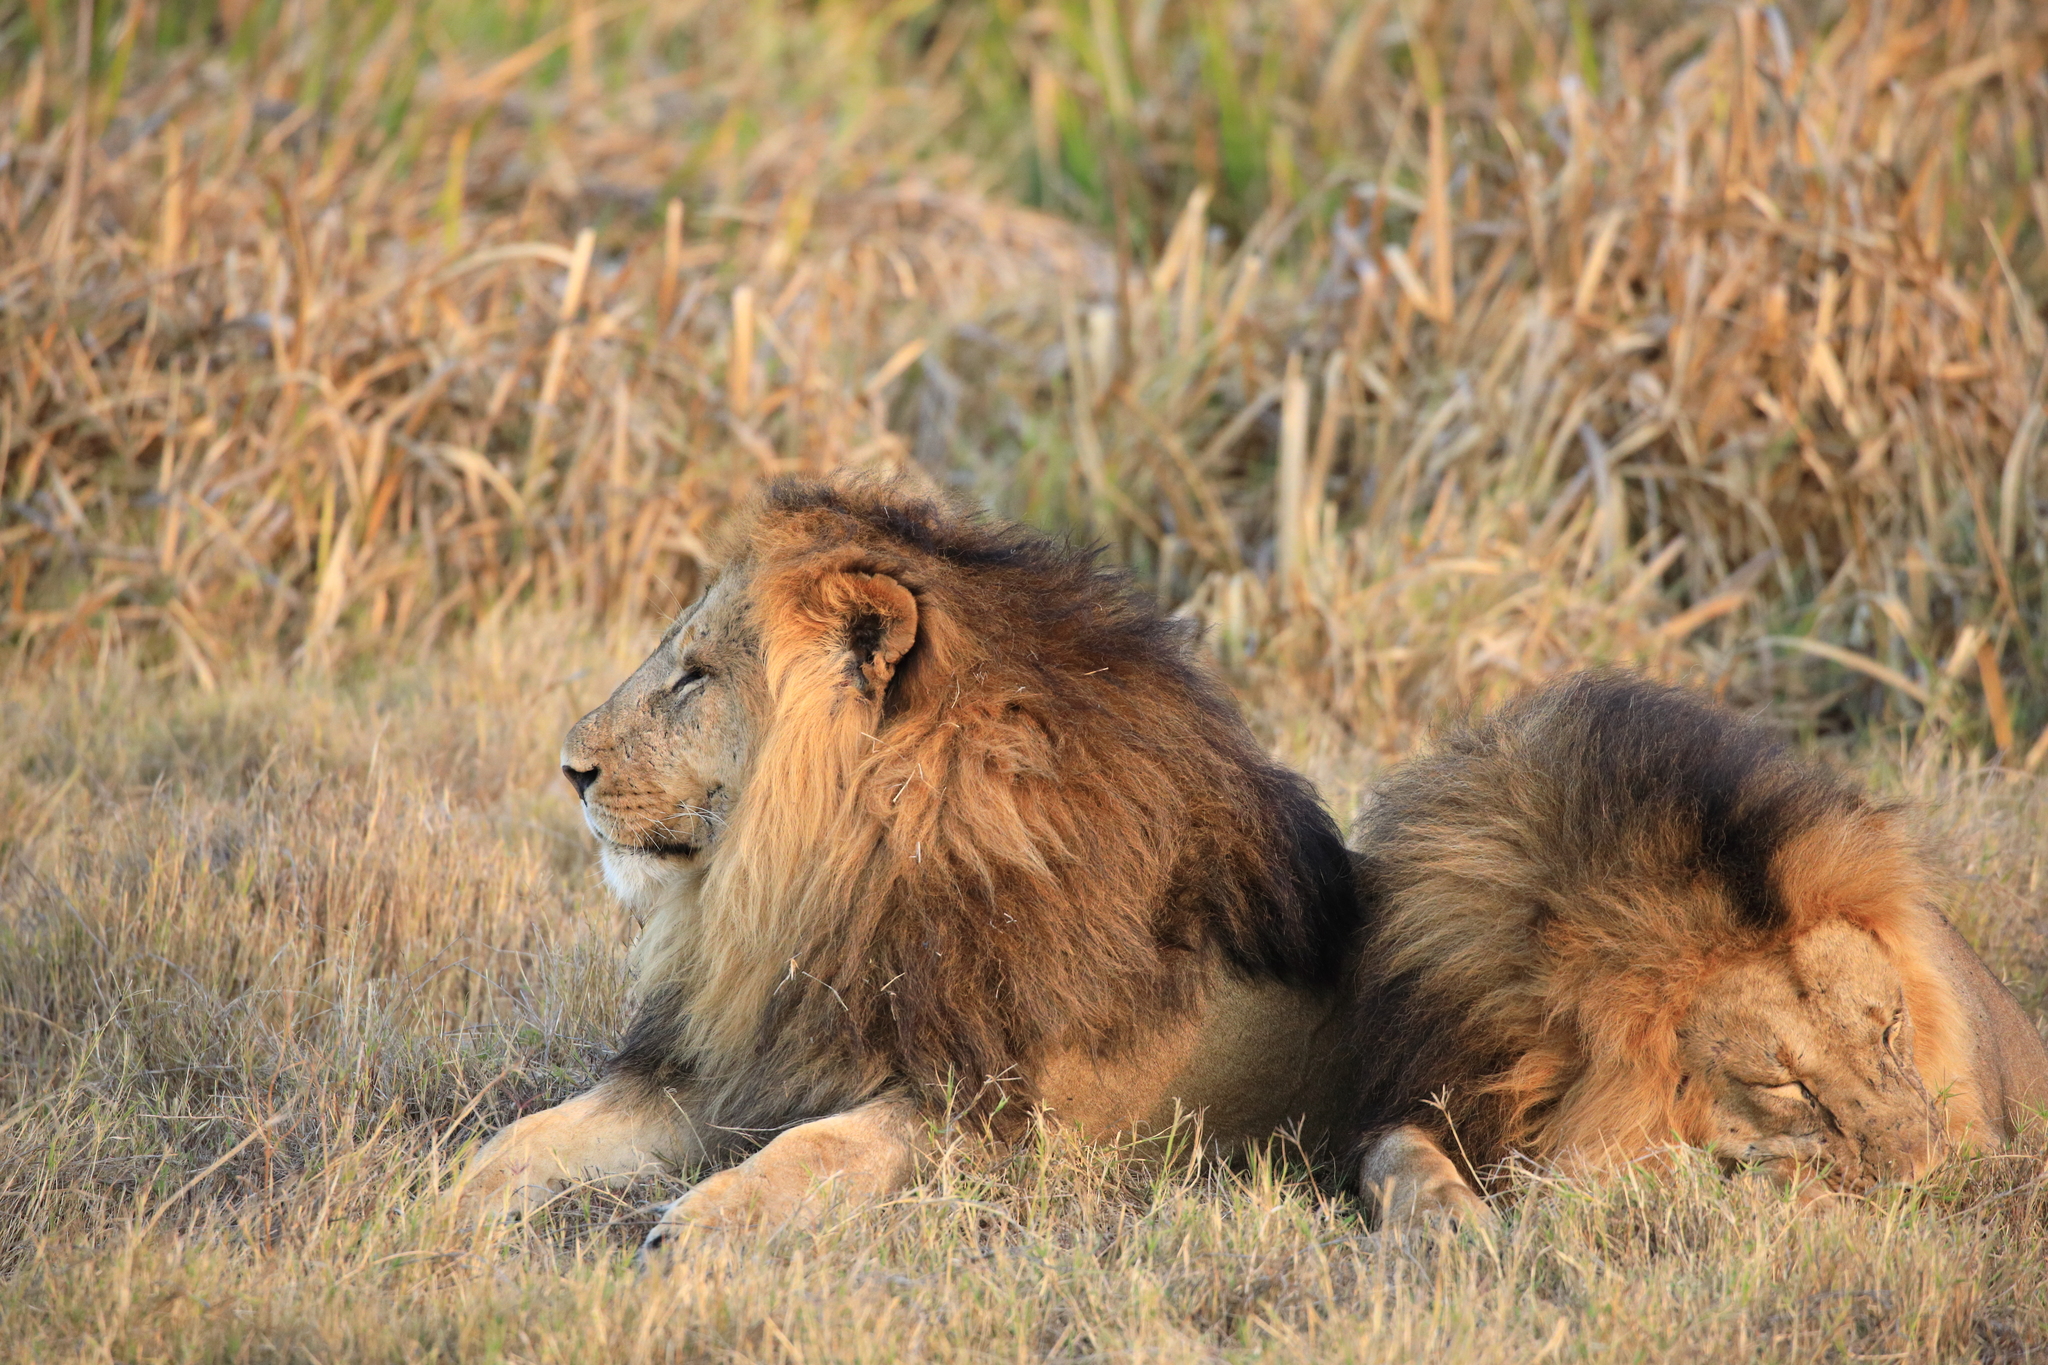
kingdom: Animalia
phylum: Chordata
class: Mammalia
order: Carnivora
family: Felidae
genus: Panthera
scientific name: Panthera leo
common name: Lion
